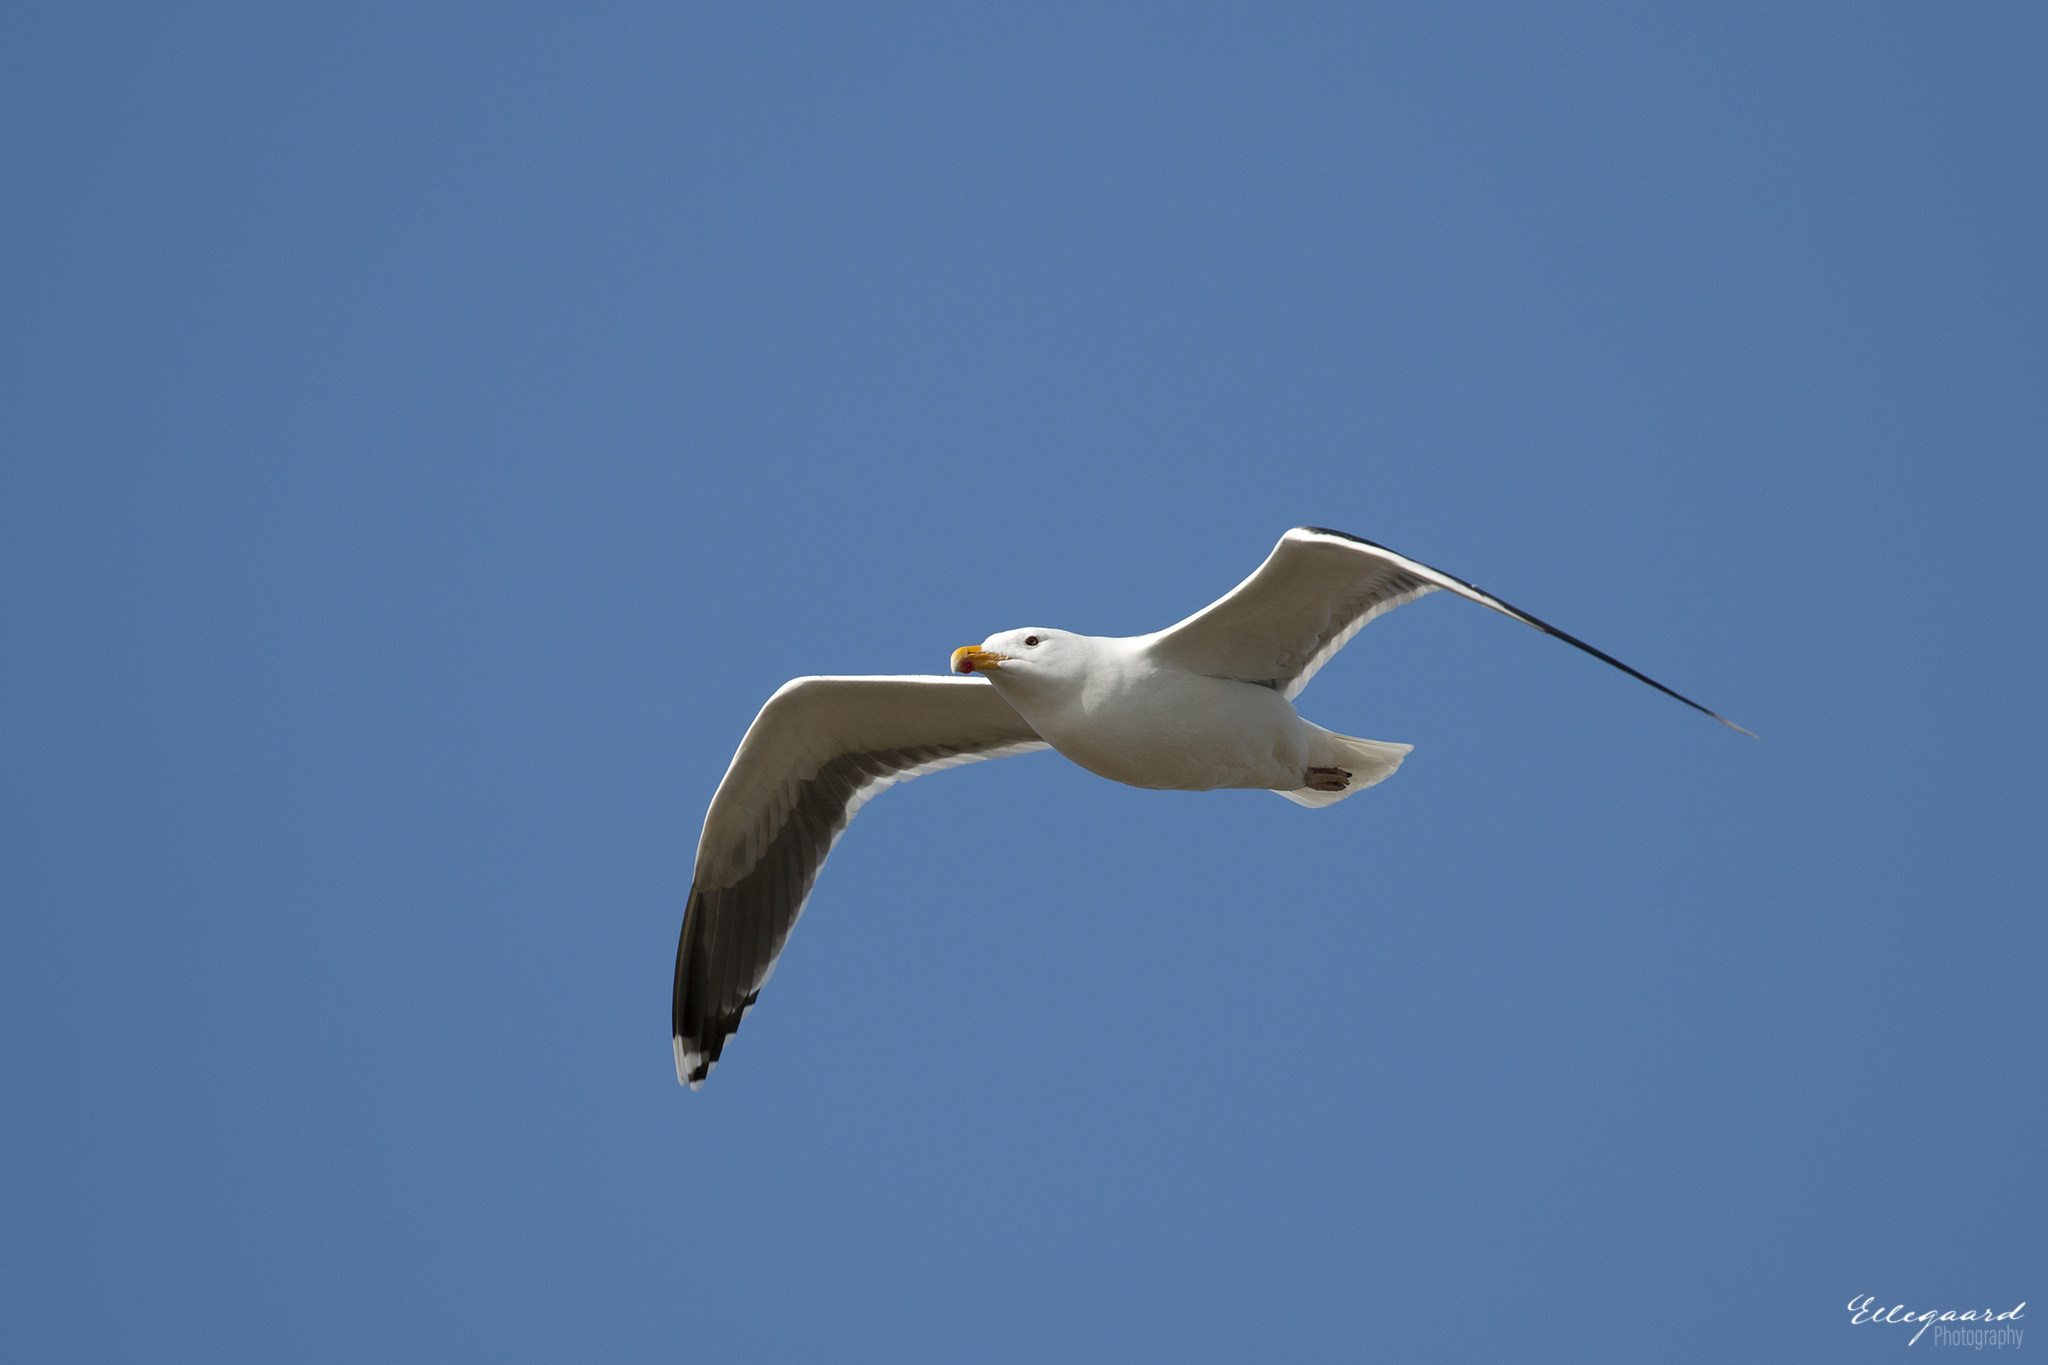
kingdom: Animalia
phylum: Chordata
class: Aves
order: Charadriiformes
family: Laridae
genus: Larus
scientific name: Larus fuscus
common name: Lesser black-backed gull
